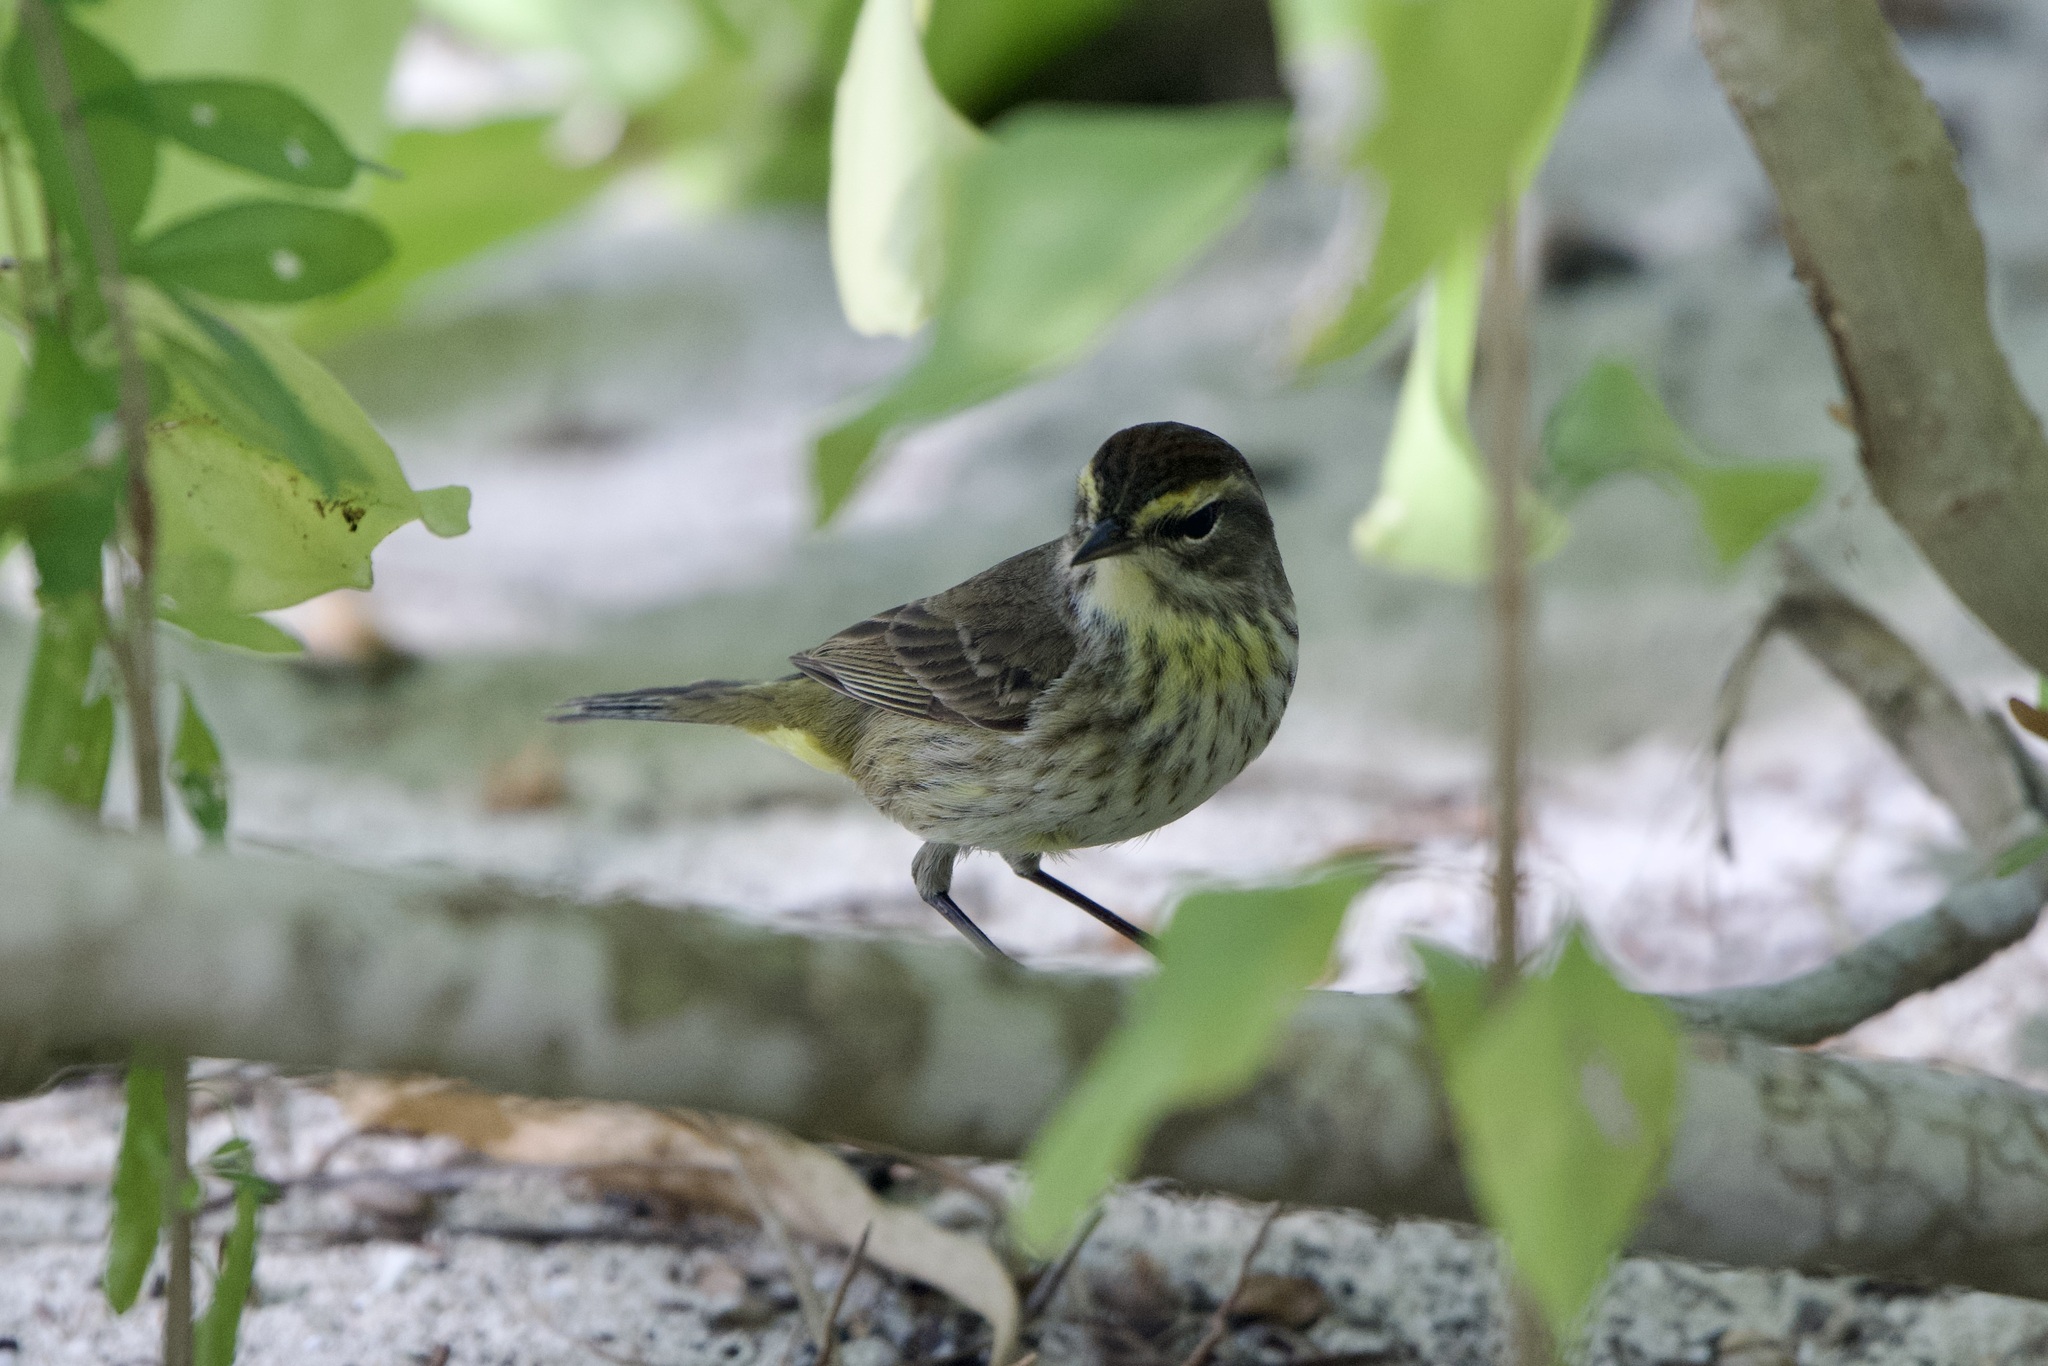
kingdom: Animalia
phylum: Chordata
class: Aves
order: Passeriformes
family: Parulidae
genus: Setophaga
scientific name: Setophaga palmarum
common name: Palm warbler
